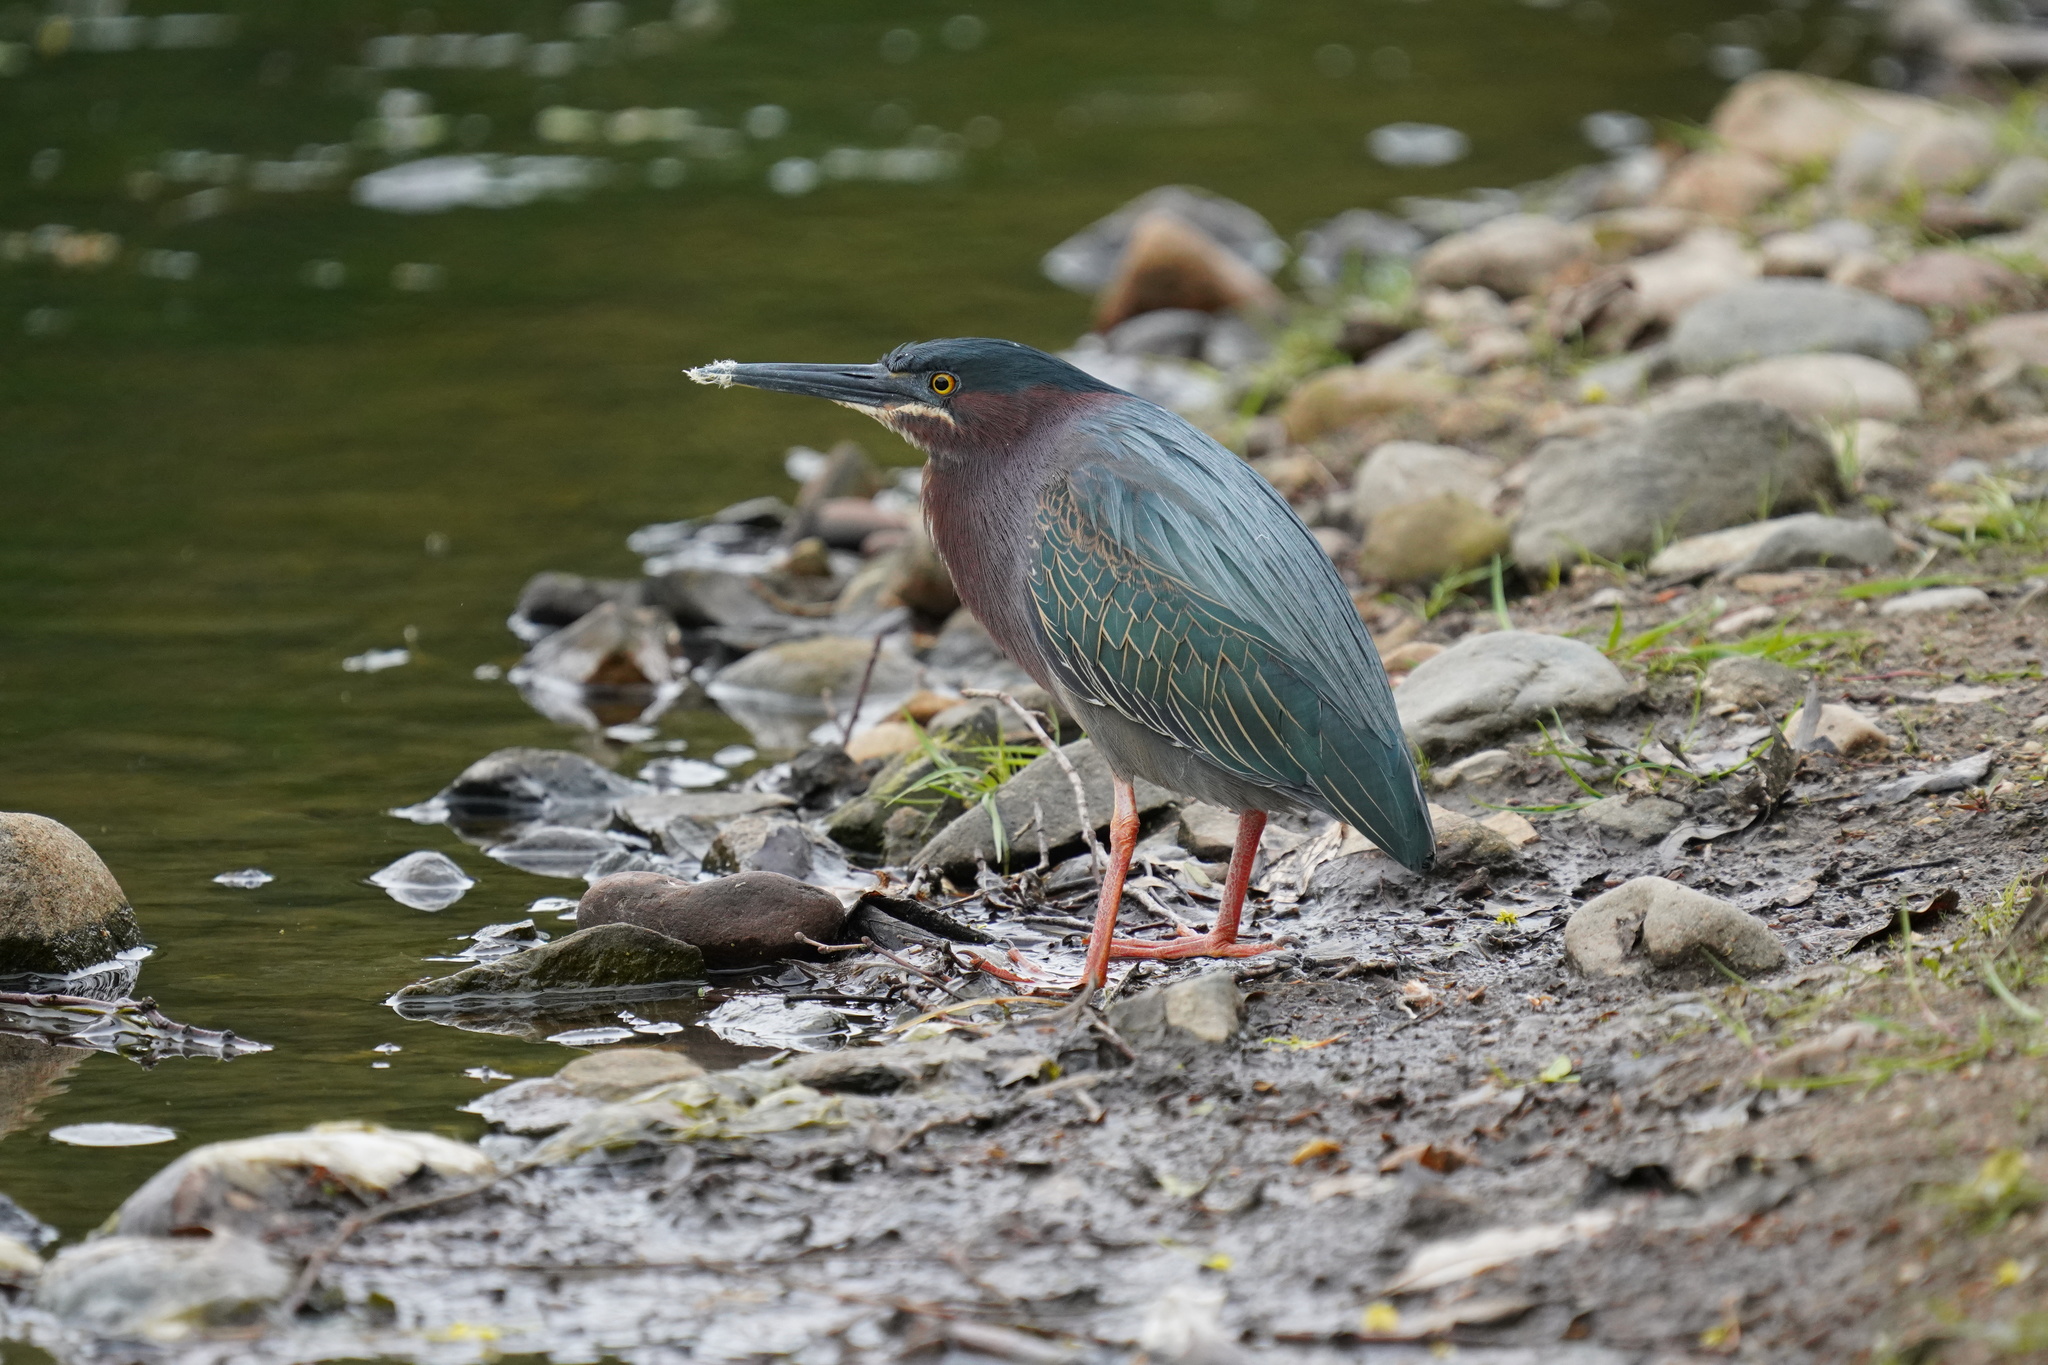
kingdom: Animalia
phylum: Chordata
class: Aves
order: Pelecaniformes
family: Ardeidae
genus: Butorides
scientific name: Butorides virescens
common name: Green heron
